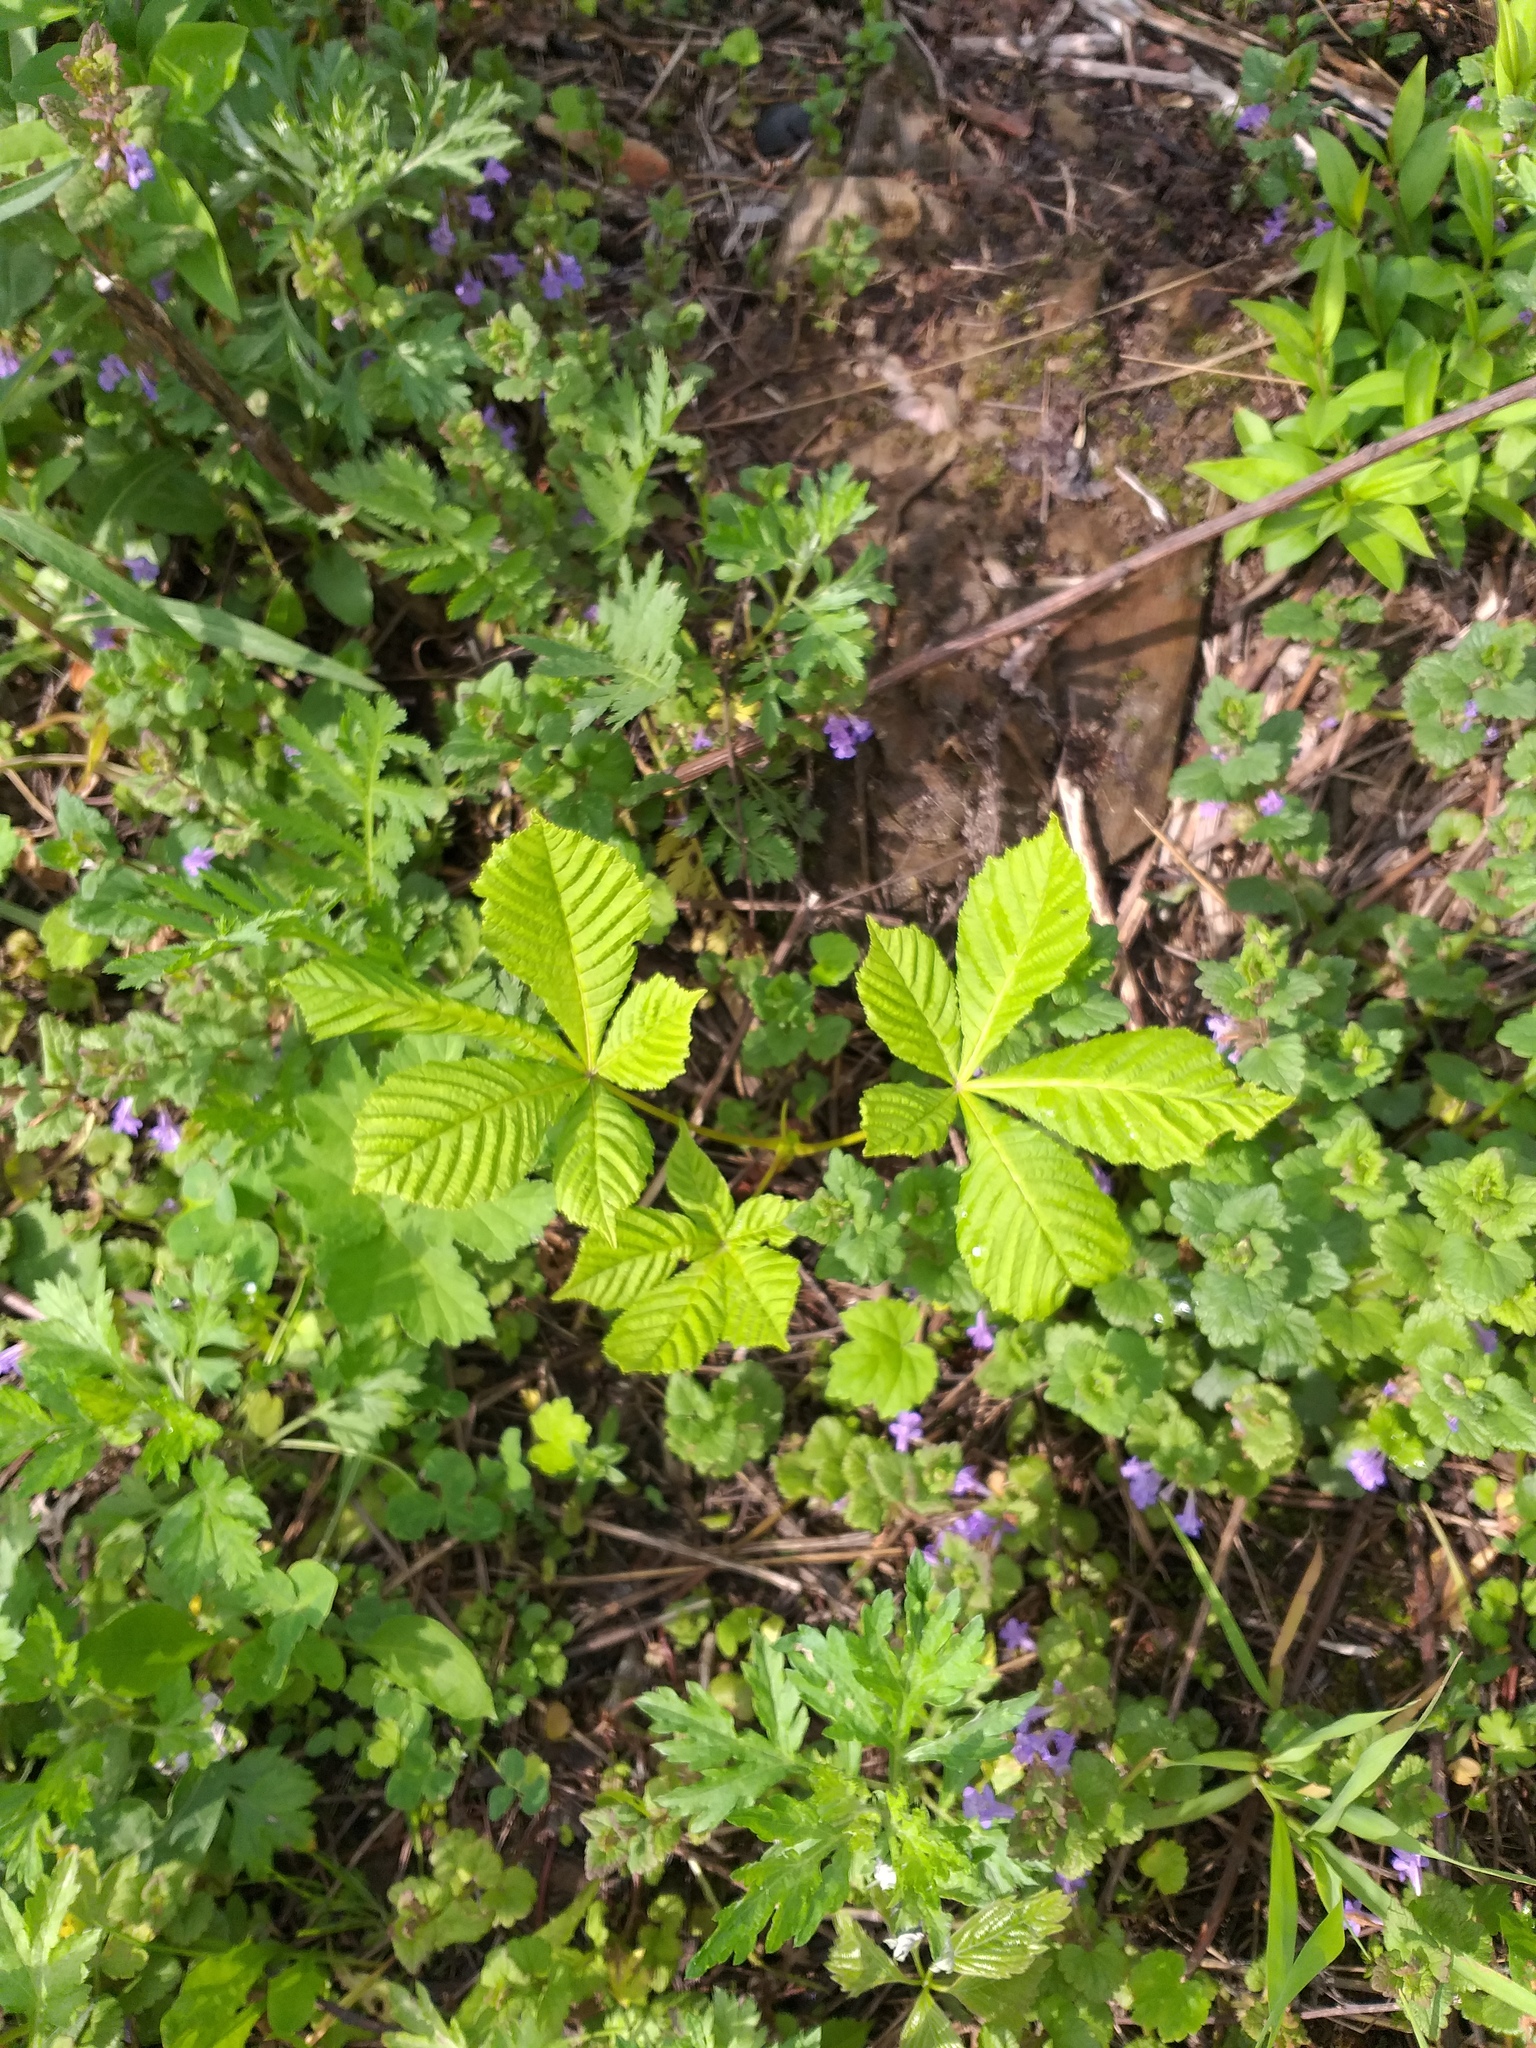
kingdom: Plantae
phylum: Tracheophyta
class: Magnoliopsida
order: Sapindales
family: Sapindaceae
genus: Aesculus
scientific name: Aesculus hippocastanum
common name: Horse-chestnut
